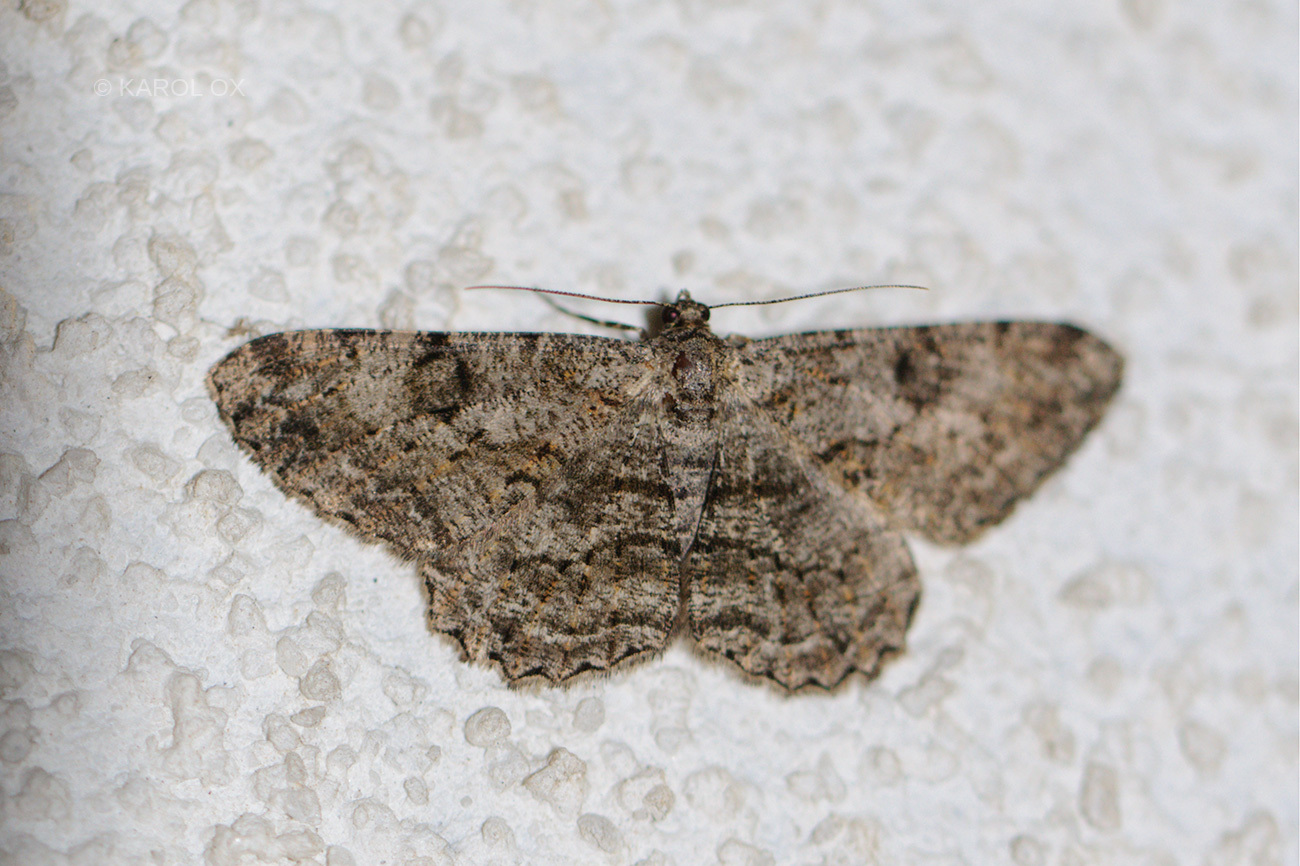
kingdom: Animalia
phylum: Arthropoda
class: Insecta
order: Lepidoptera
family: Geometridae
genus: Peribatodes
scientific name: Peribatodes rhomboidaria
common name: Willow beauty
